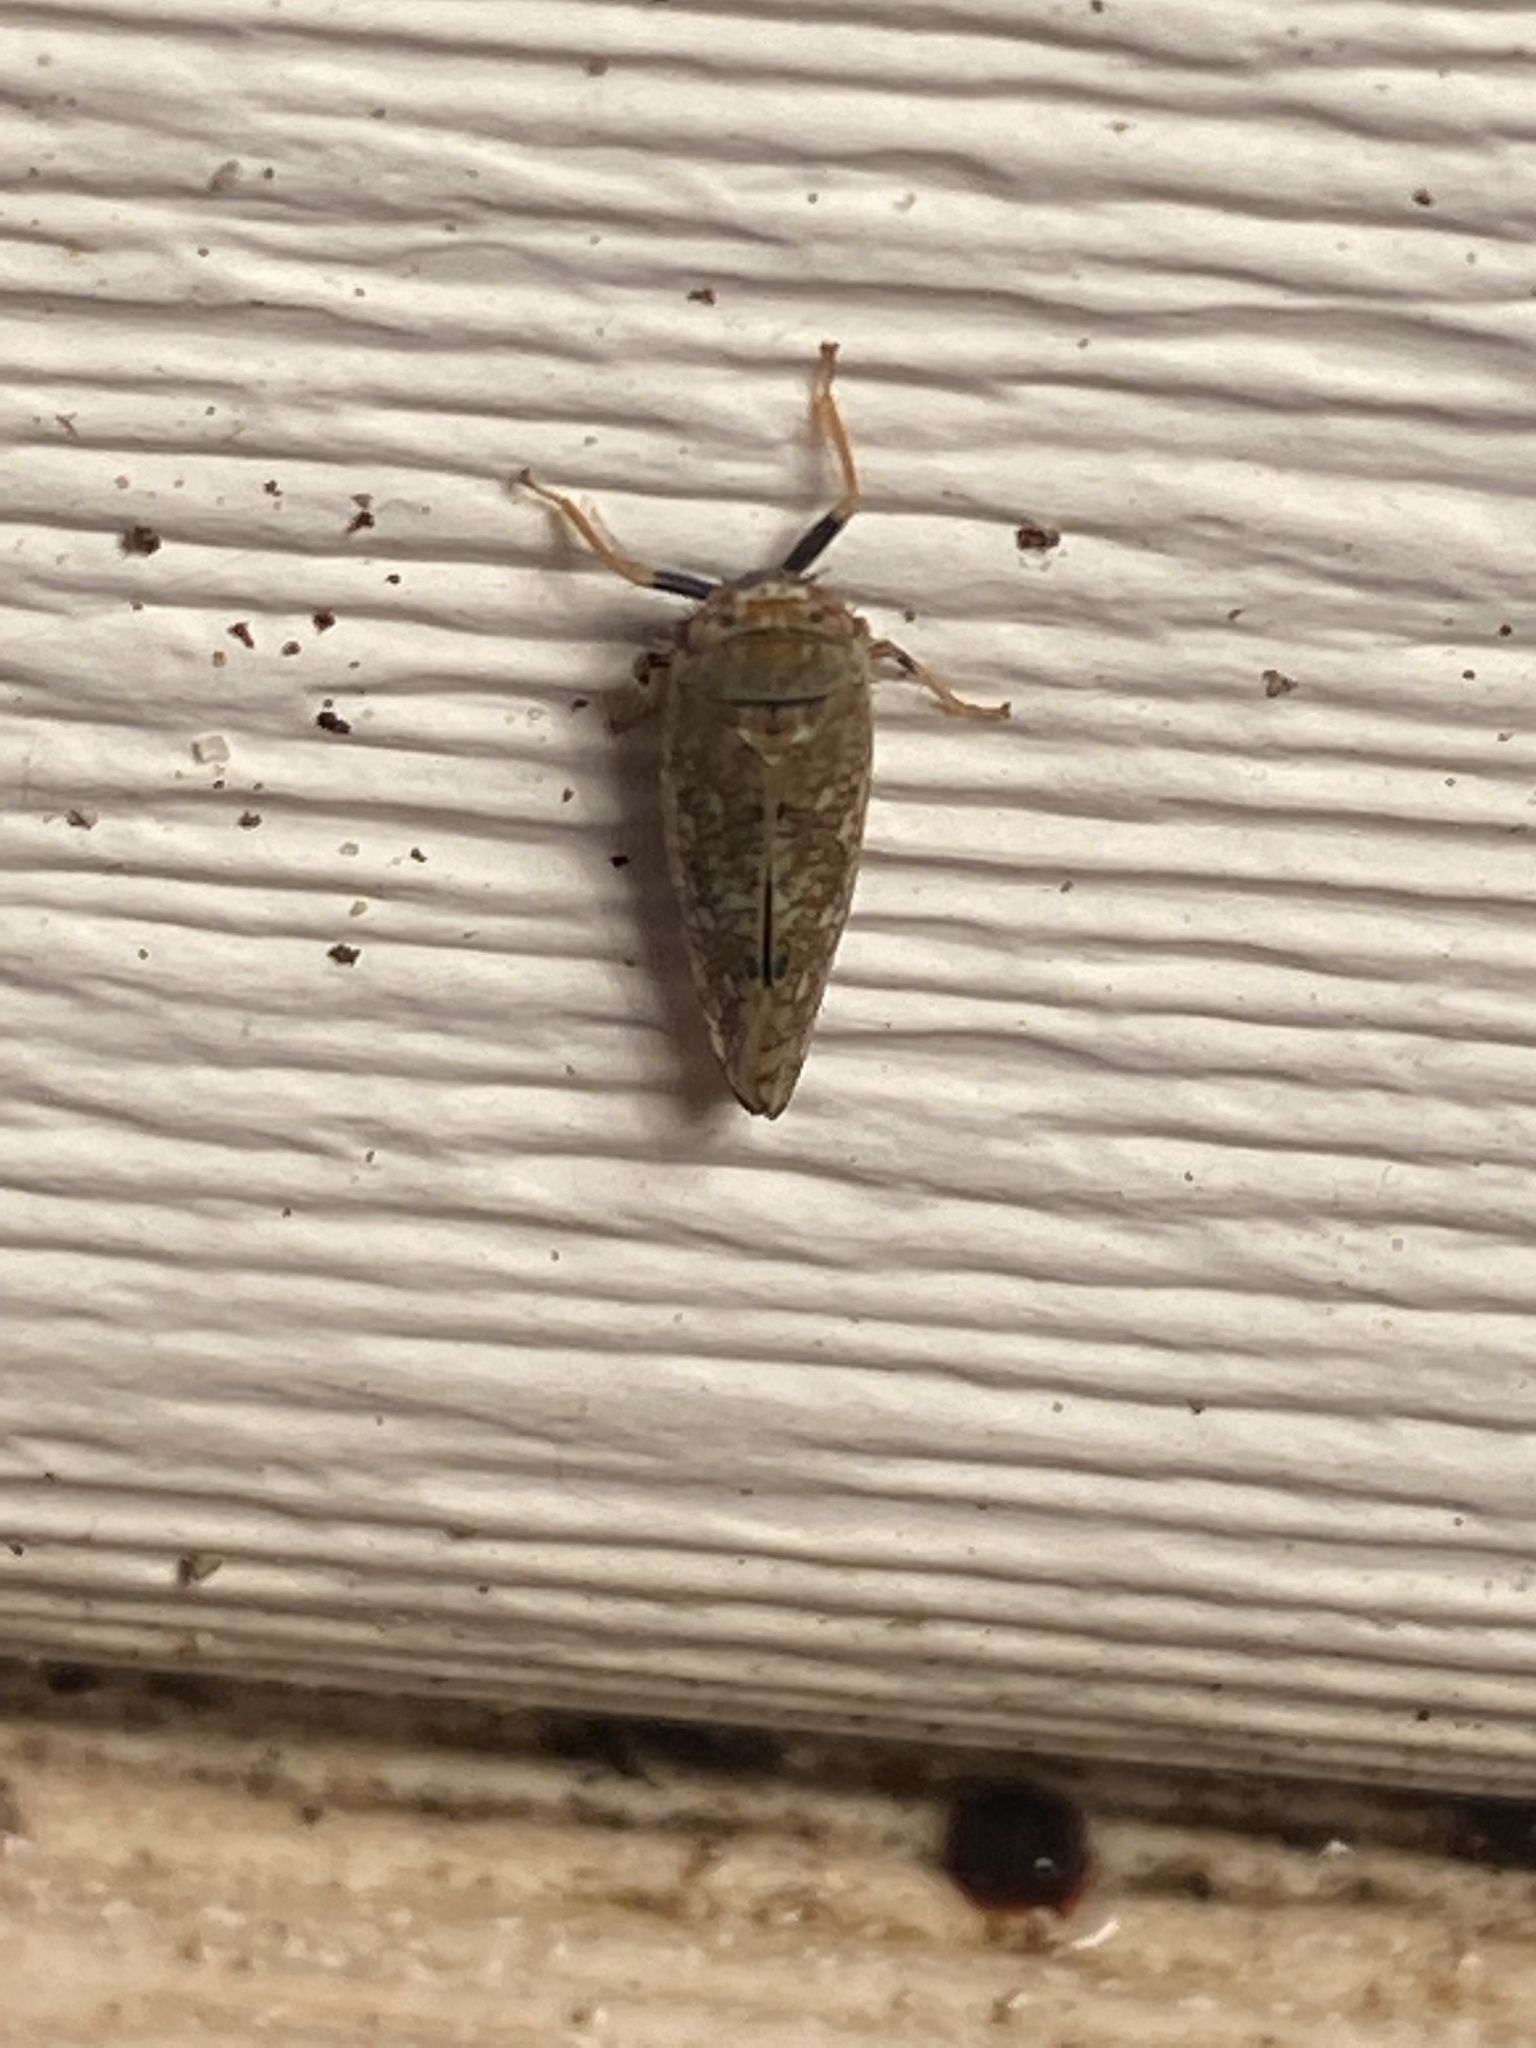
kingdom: Animalia
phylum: Arthropoda
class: Insecta
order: Hemiptera
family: Cicadellidae
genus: Orientus
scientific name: Orientus ishidae
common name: Japanese leafhopper
